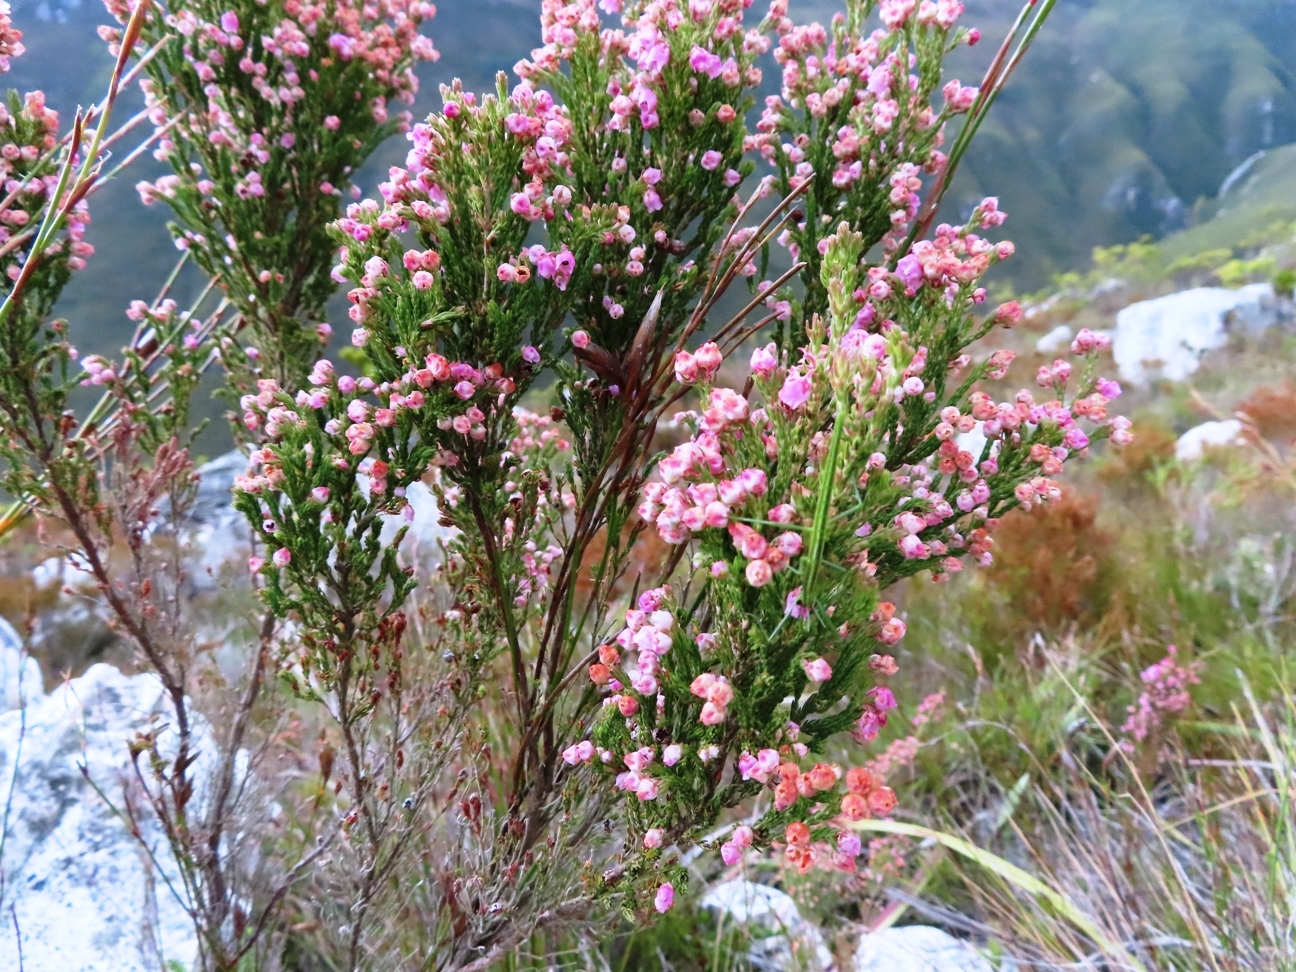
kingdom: Plantae
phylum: Tracheophyta
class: Magnoliopsida
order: Ericales
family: Ericaceae
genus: Erica
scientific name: Erica condensata
